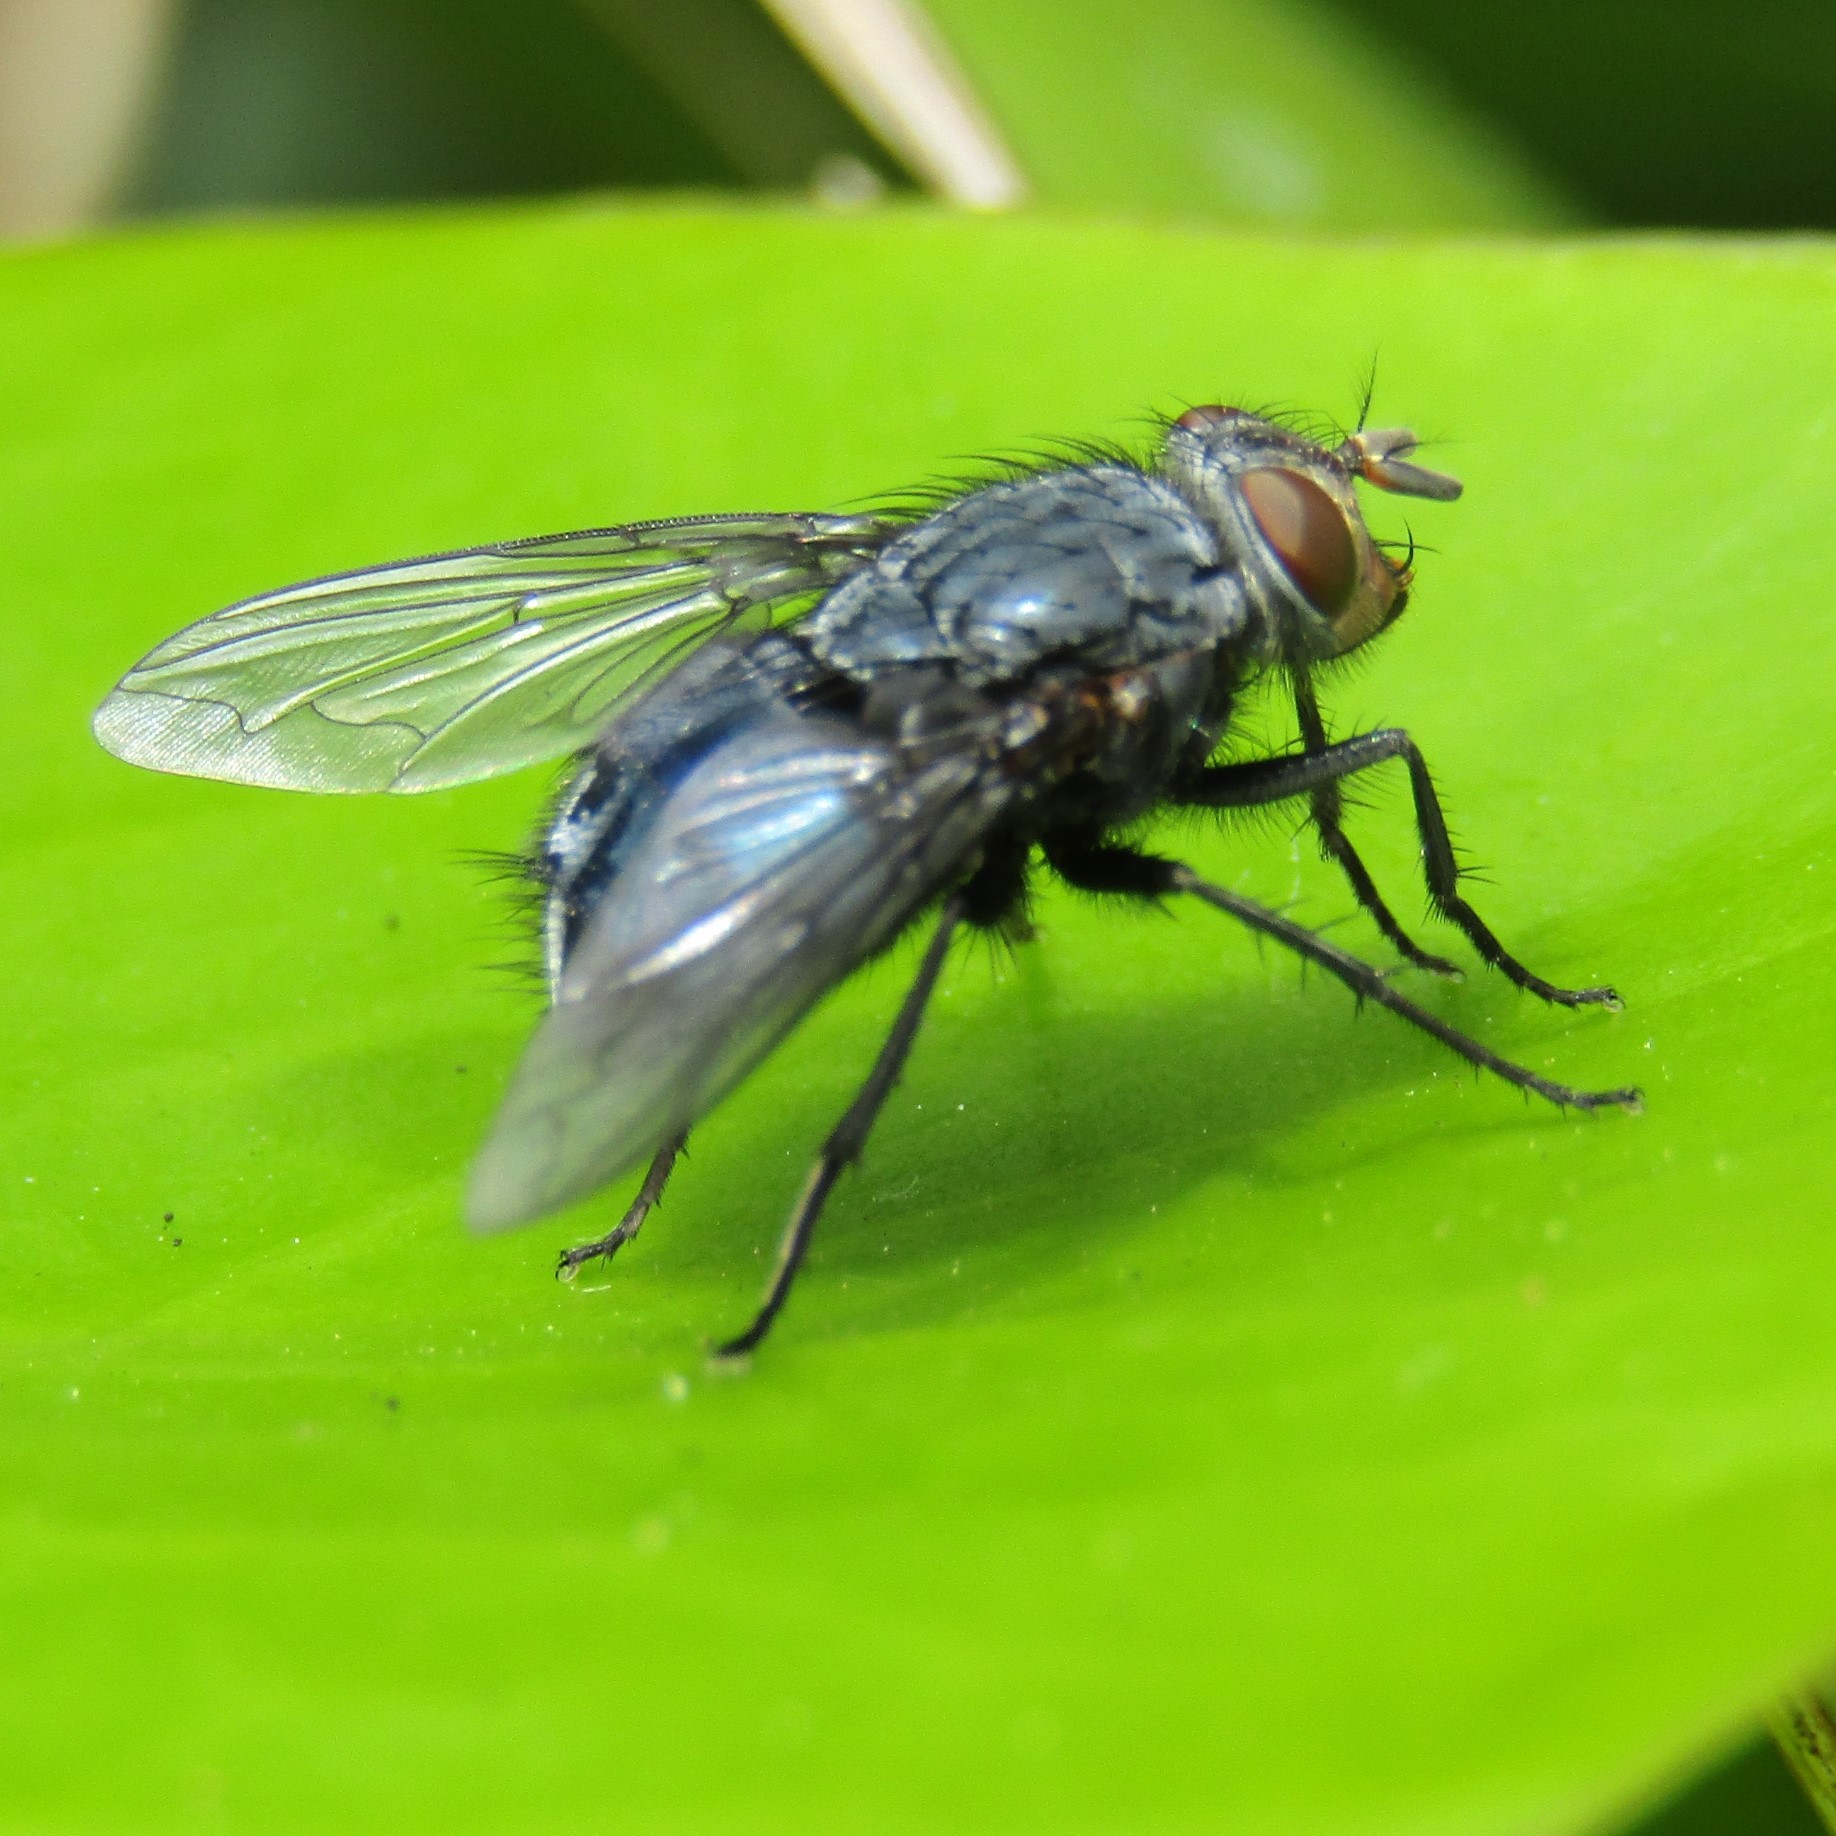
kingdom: Animalia
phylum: Arthropoda
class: Insecta
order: Diptera
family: Calliphoridae
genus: Calliphora
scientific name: Calliphora vicina
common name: Common blow flie
